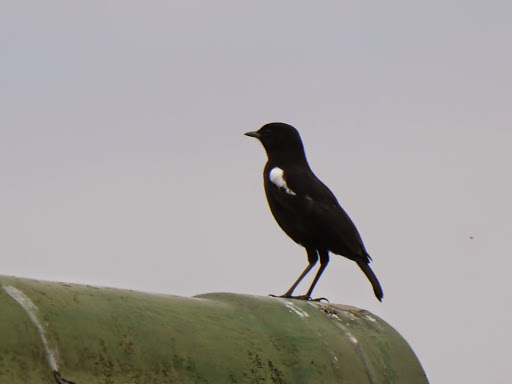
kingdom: Animalia
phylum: Chordata
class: Aves
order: Passeriformes
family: Muscicapidae
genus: Myrmecocichla
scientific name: Myrmecocichla nigra
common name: Sooty chat
